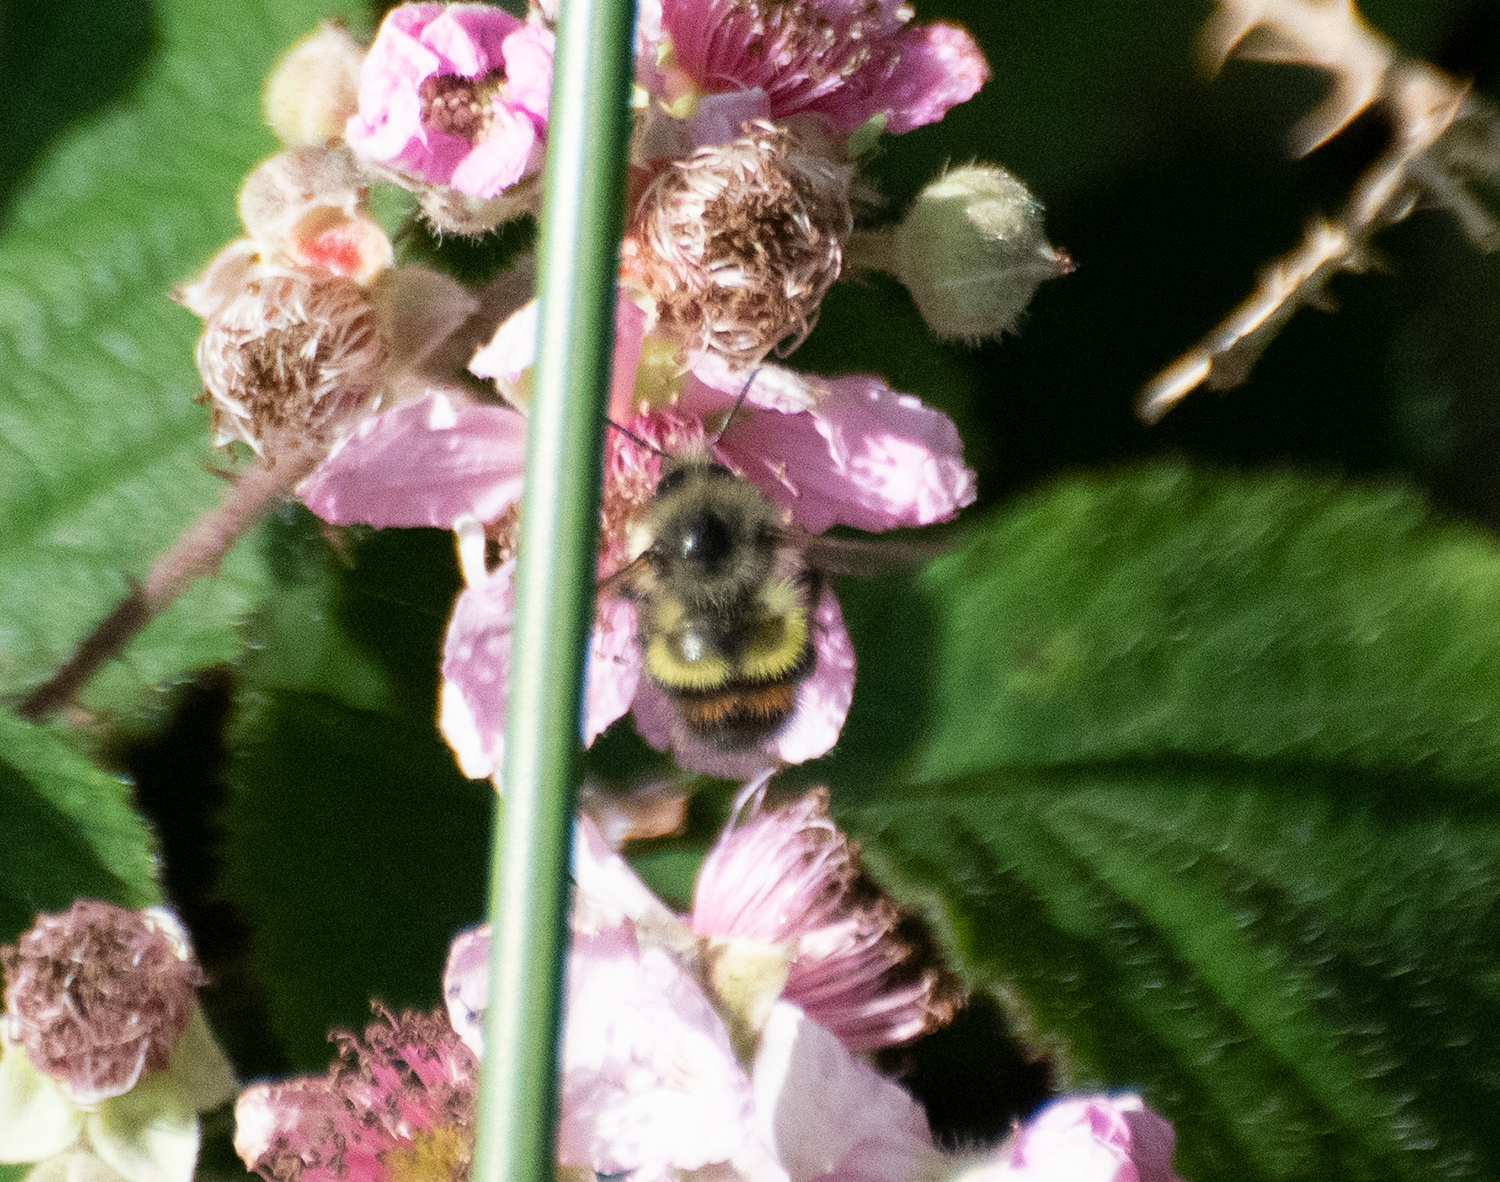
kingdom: Animalia
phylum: Arthropoda
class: Insecta
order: Hymenoptera
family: Apidae
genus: Bombus
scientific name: Bombus flavifrons
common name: Yellow head bumble bee
